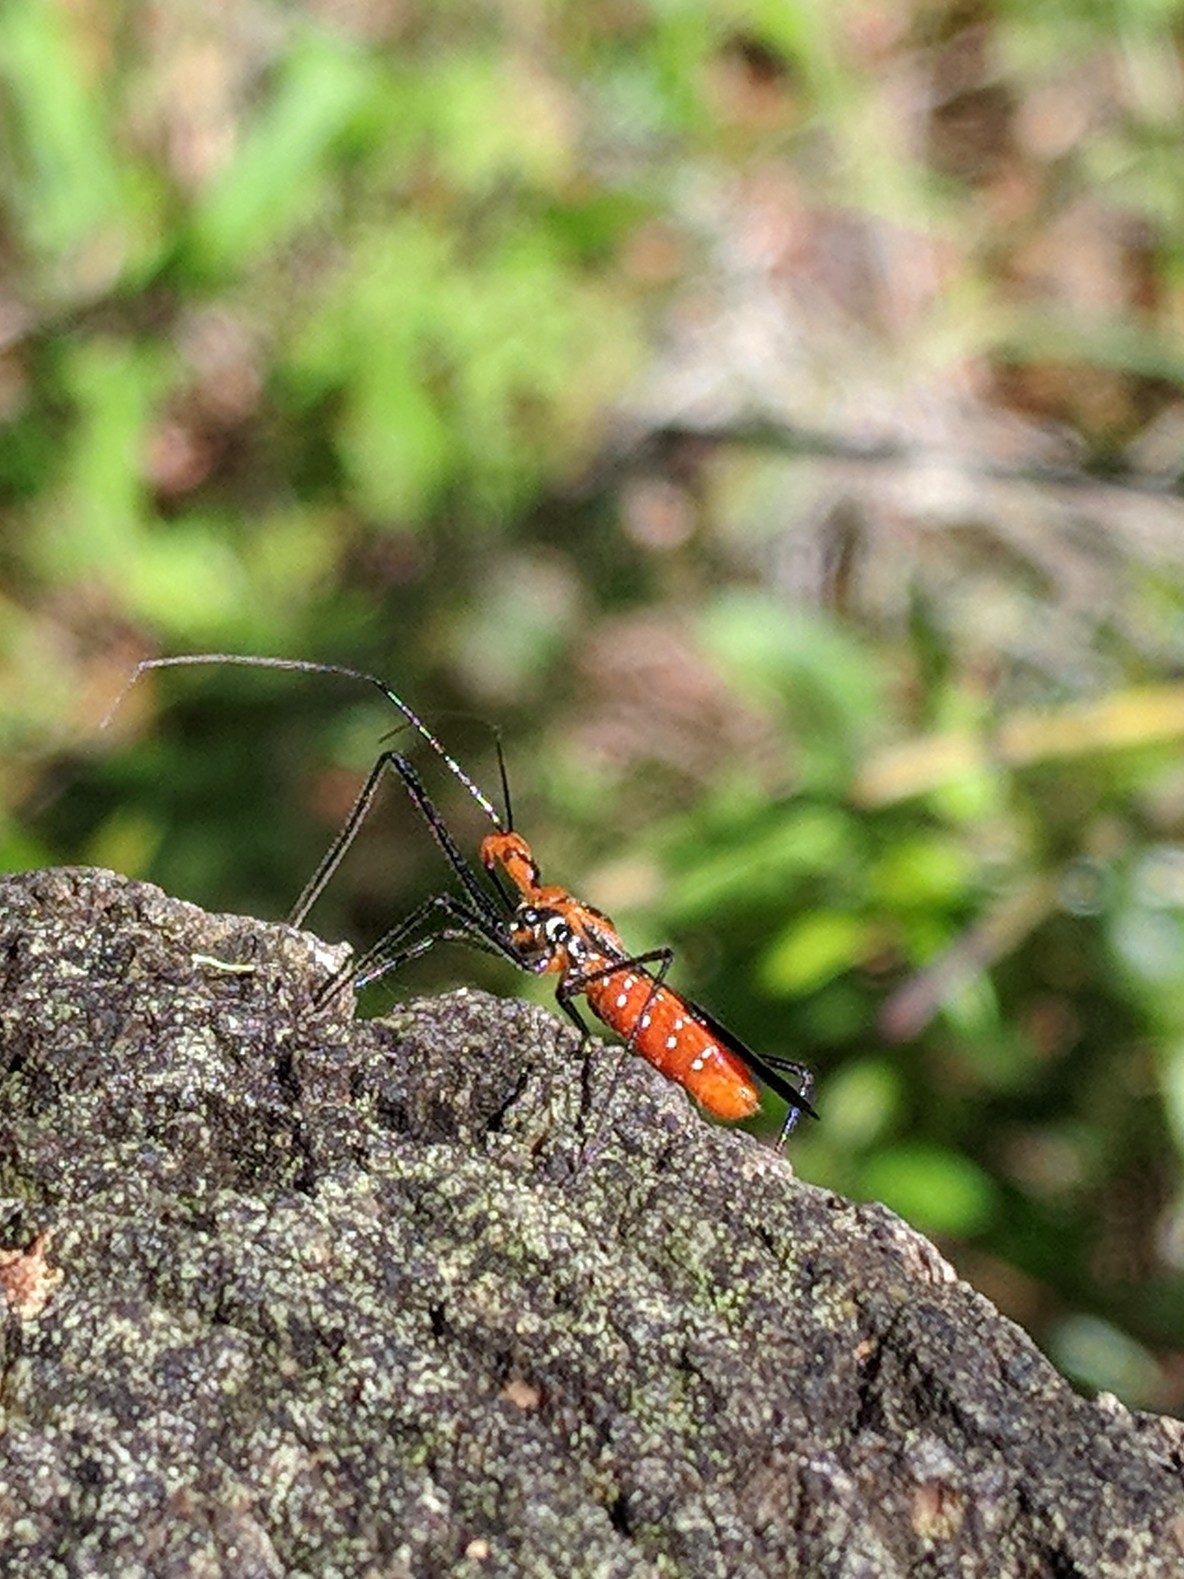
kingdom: Animalia
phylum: Arthropoda
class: Insecta
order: Hemiptera
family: Reduviidae
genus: Zelus
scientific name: Zelus longipes
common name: Milkweed assassin bug
